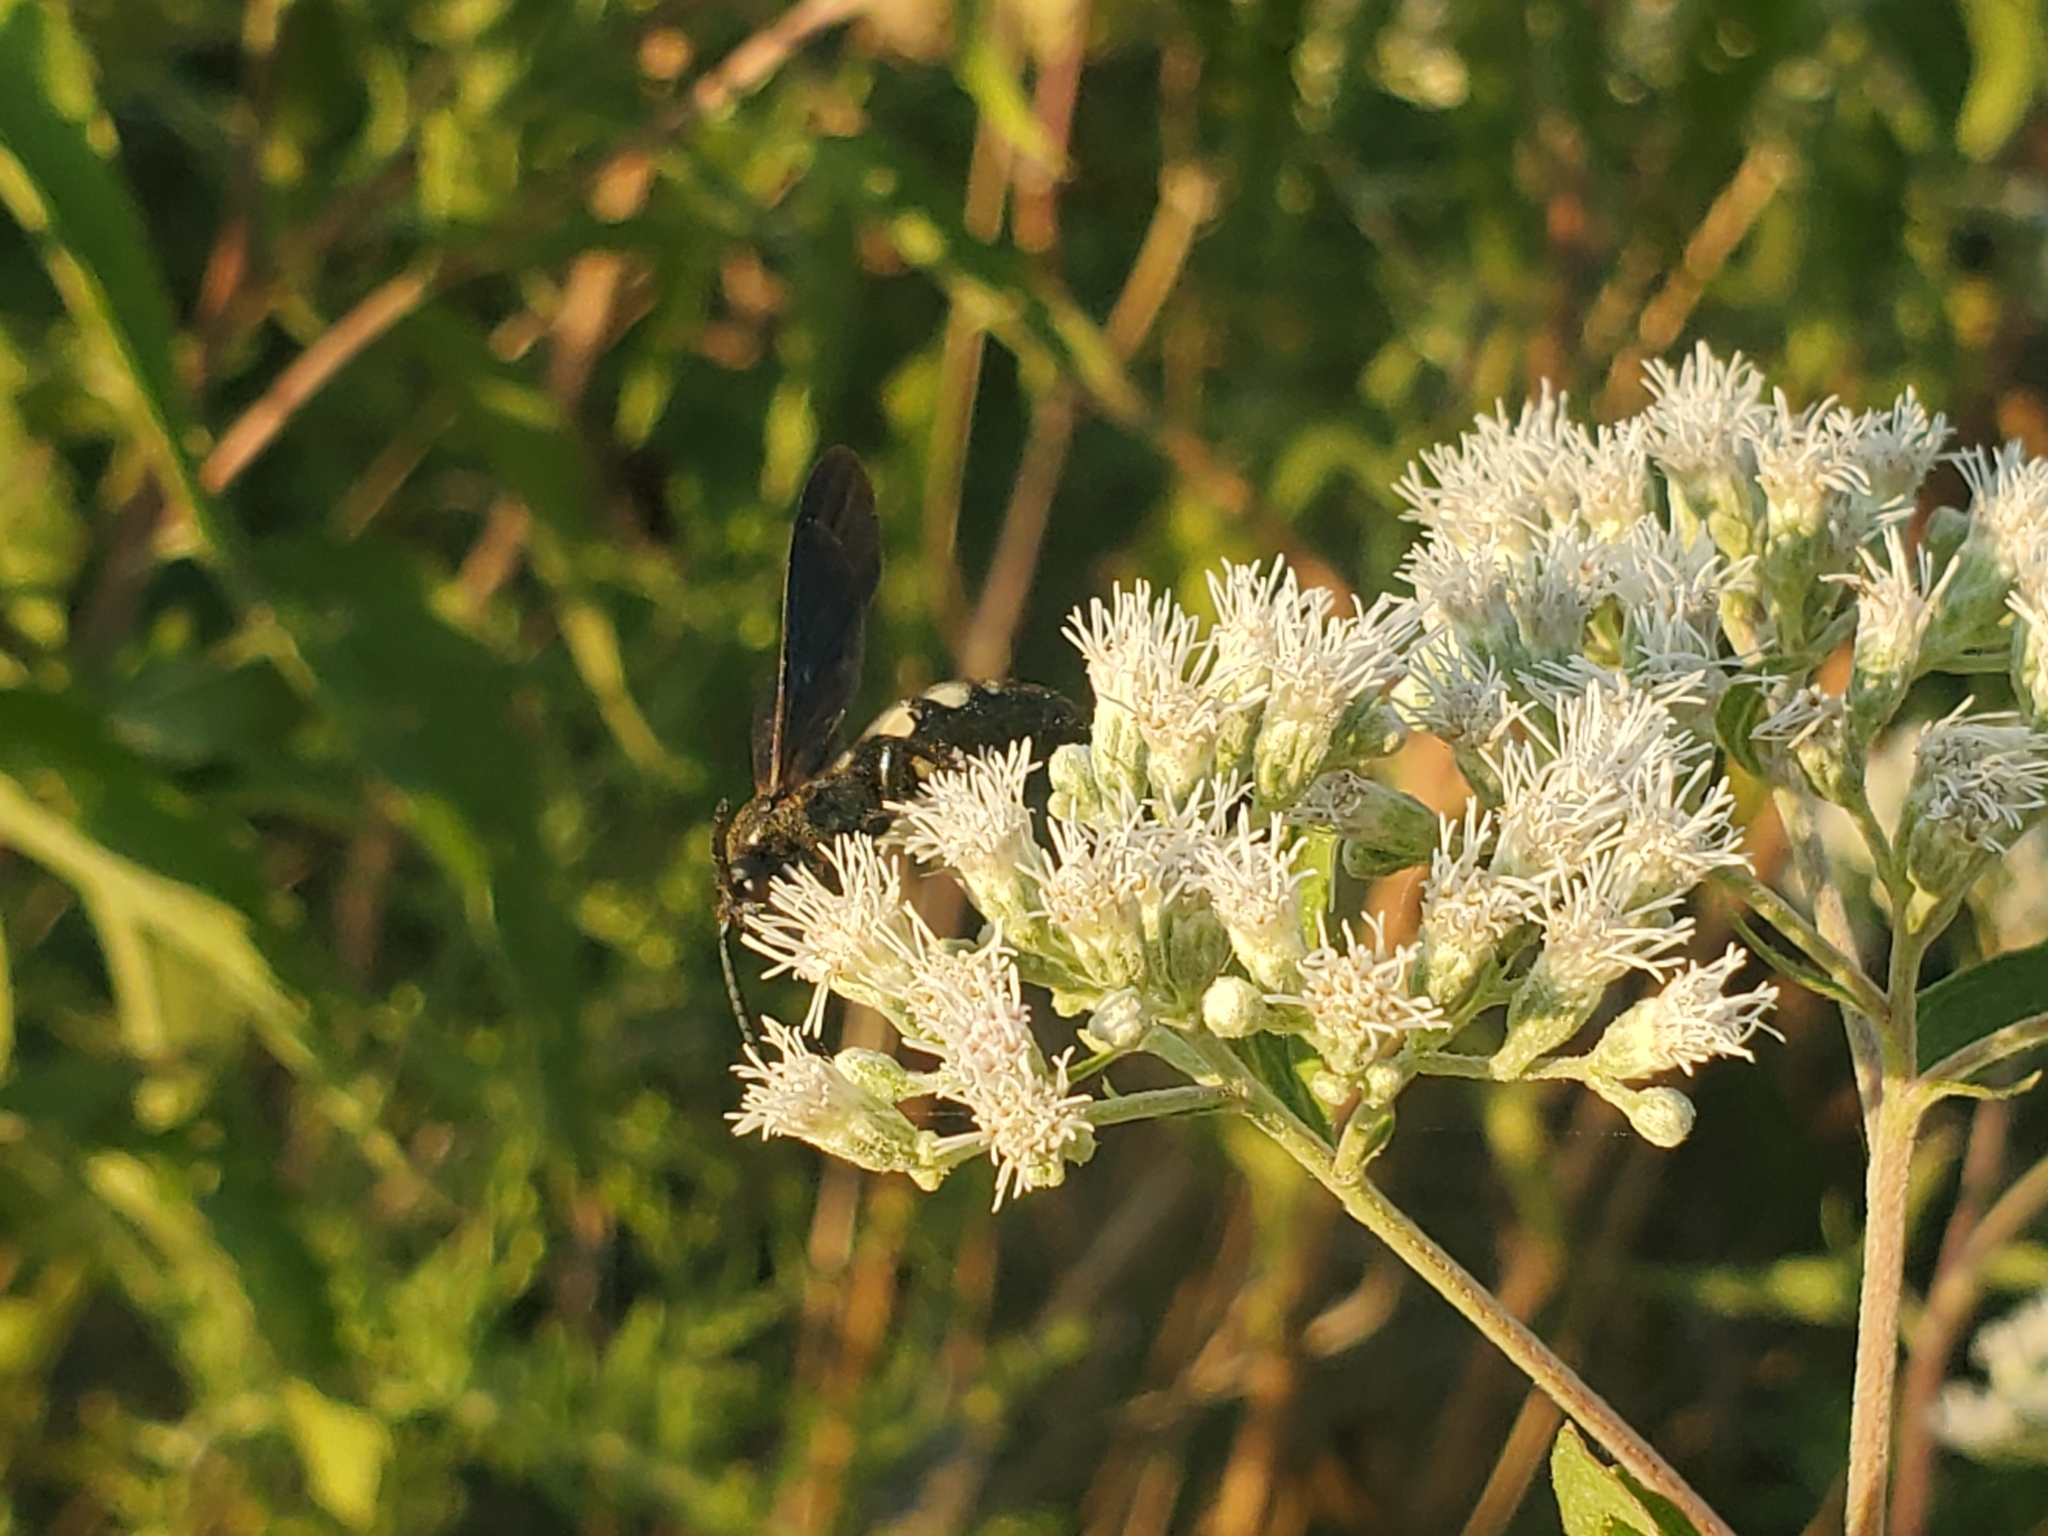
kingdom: Animalia
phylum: Arthropoda
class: Insecta
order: Hymenoptera
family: Scoliidae
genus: Scolia
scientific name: Scolia bicincta
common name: Double-banded scoliid wasp
